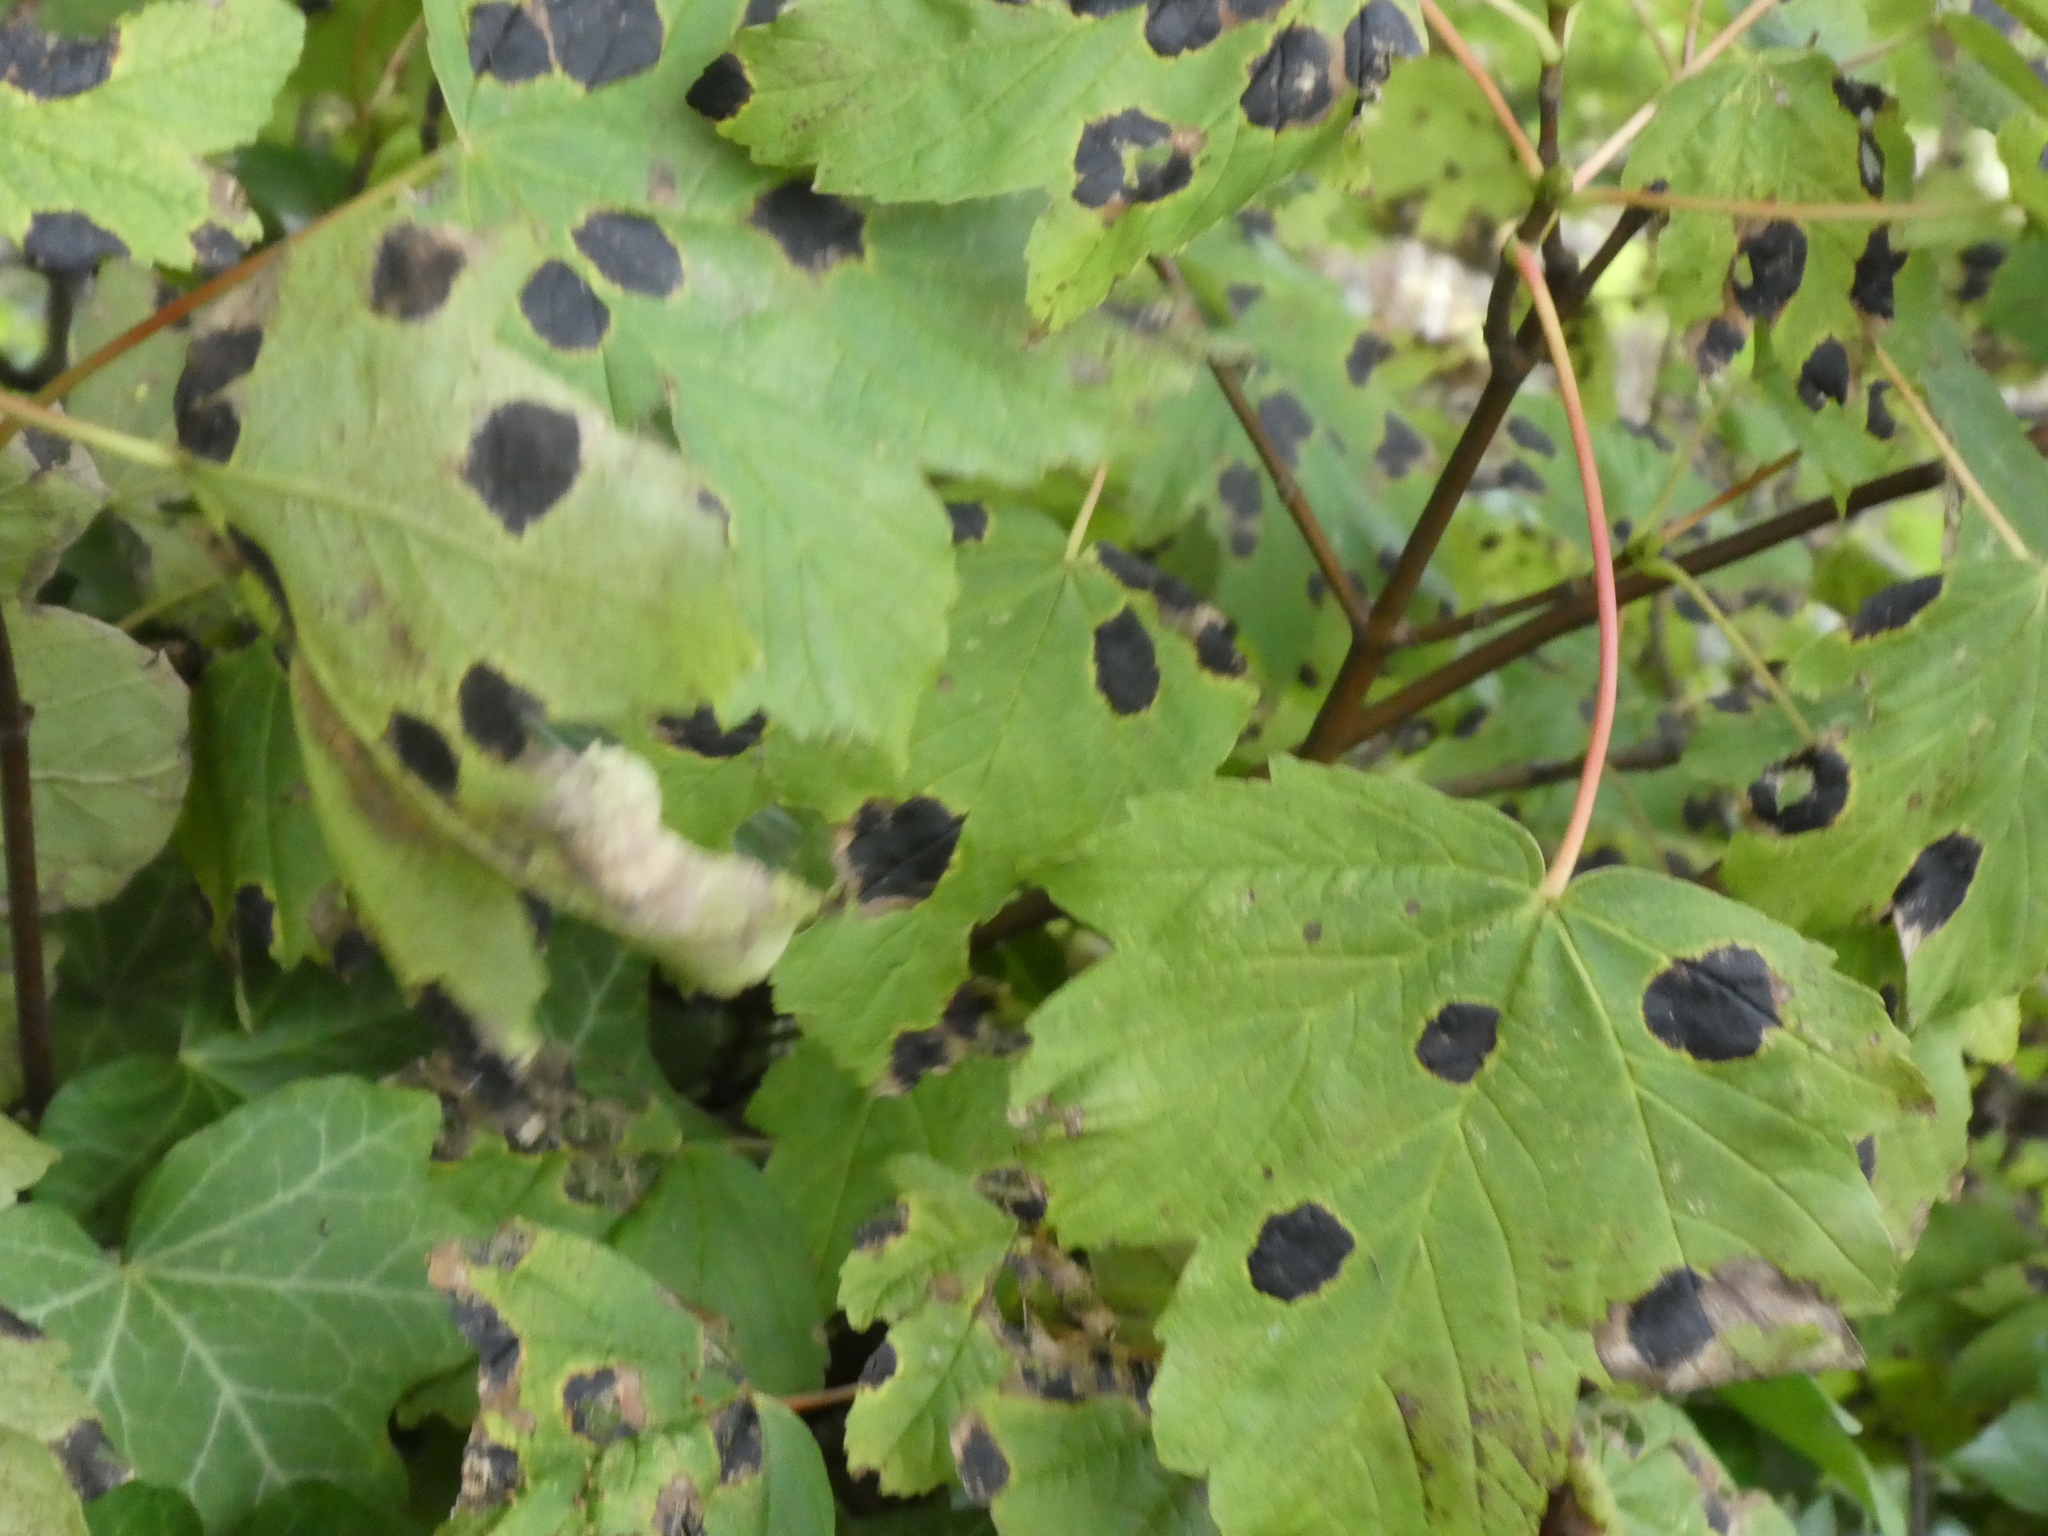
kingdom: Fungi
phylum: Ascomycota
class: Leotiomycetes
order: Rhytismatales
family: Rhytismataceae
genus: Rhytisma
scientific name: Rhytisma acerinum
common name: European tar spot
